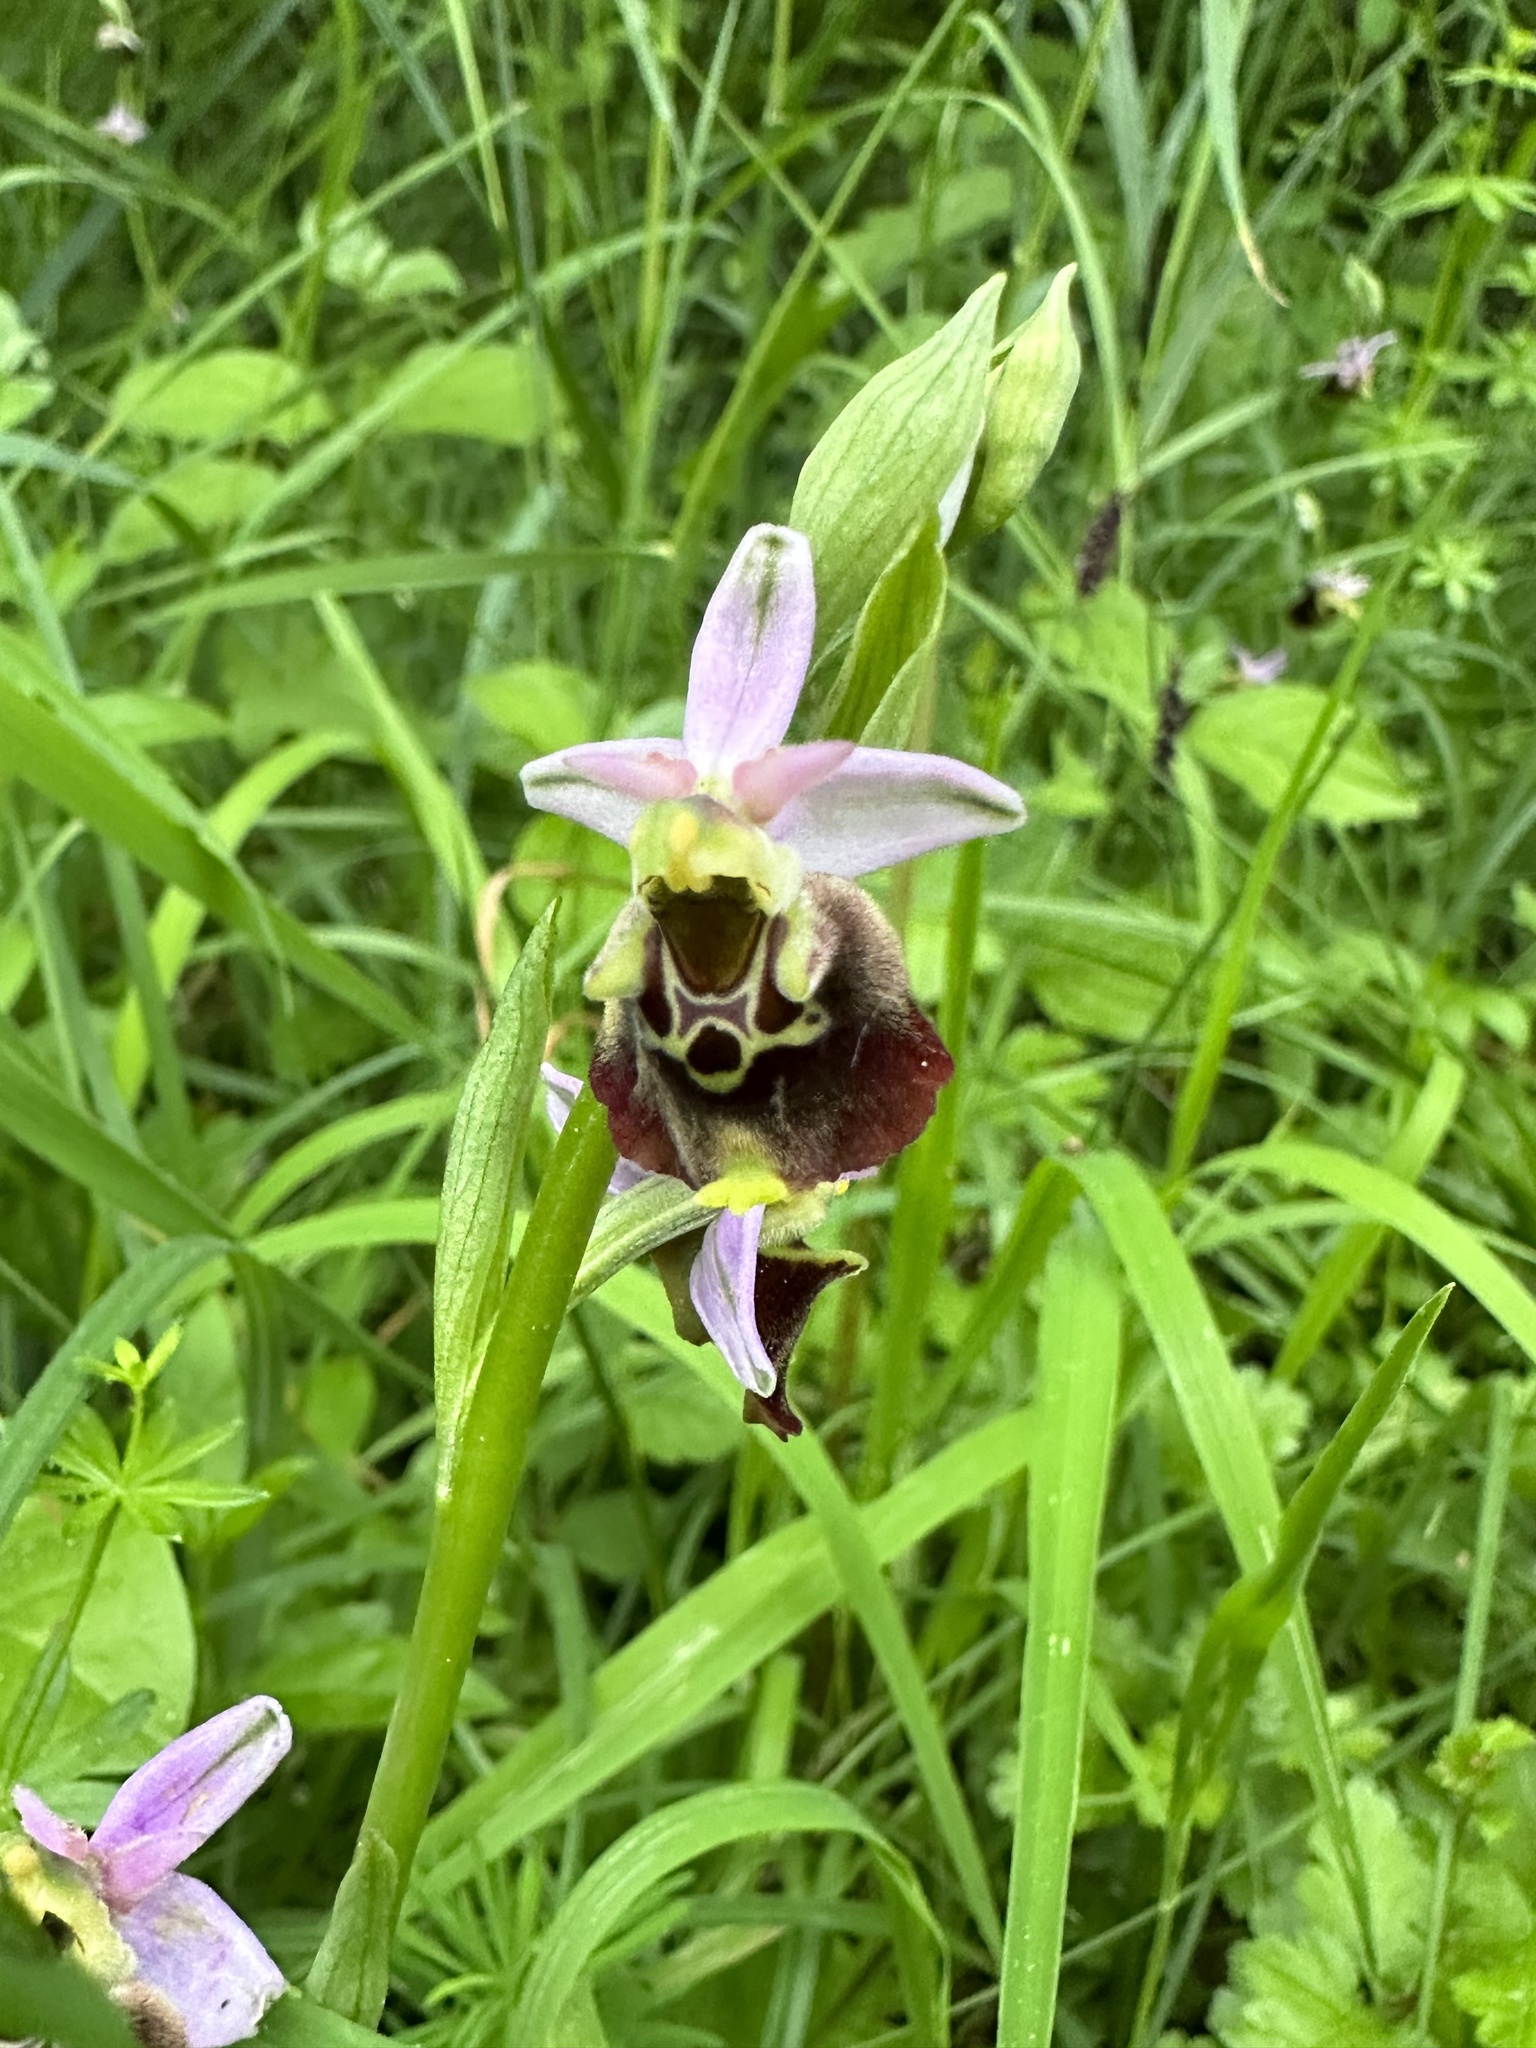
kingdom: Plantae
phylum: Tracheophyta
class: Liliopsida
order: Asparagales
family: Orchidaceae
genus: Ophrys
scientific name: Ophrys holosericea
